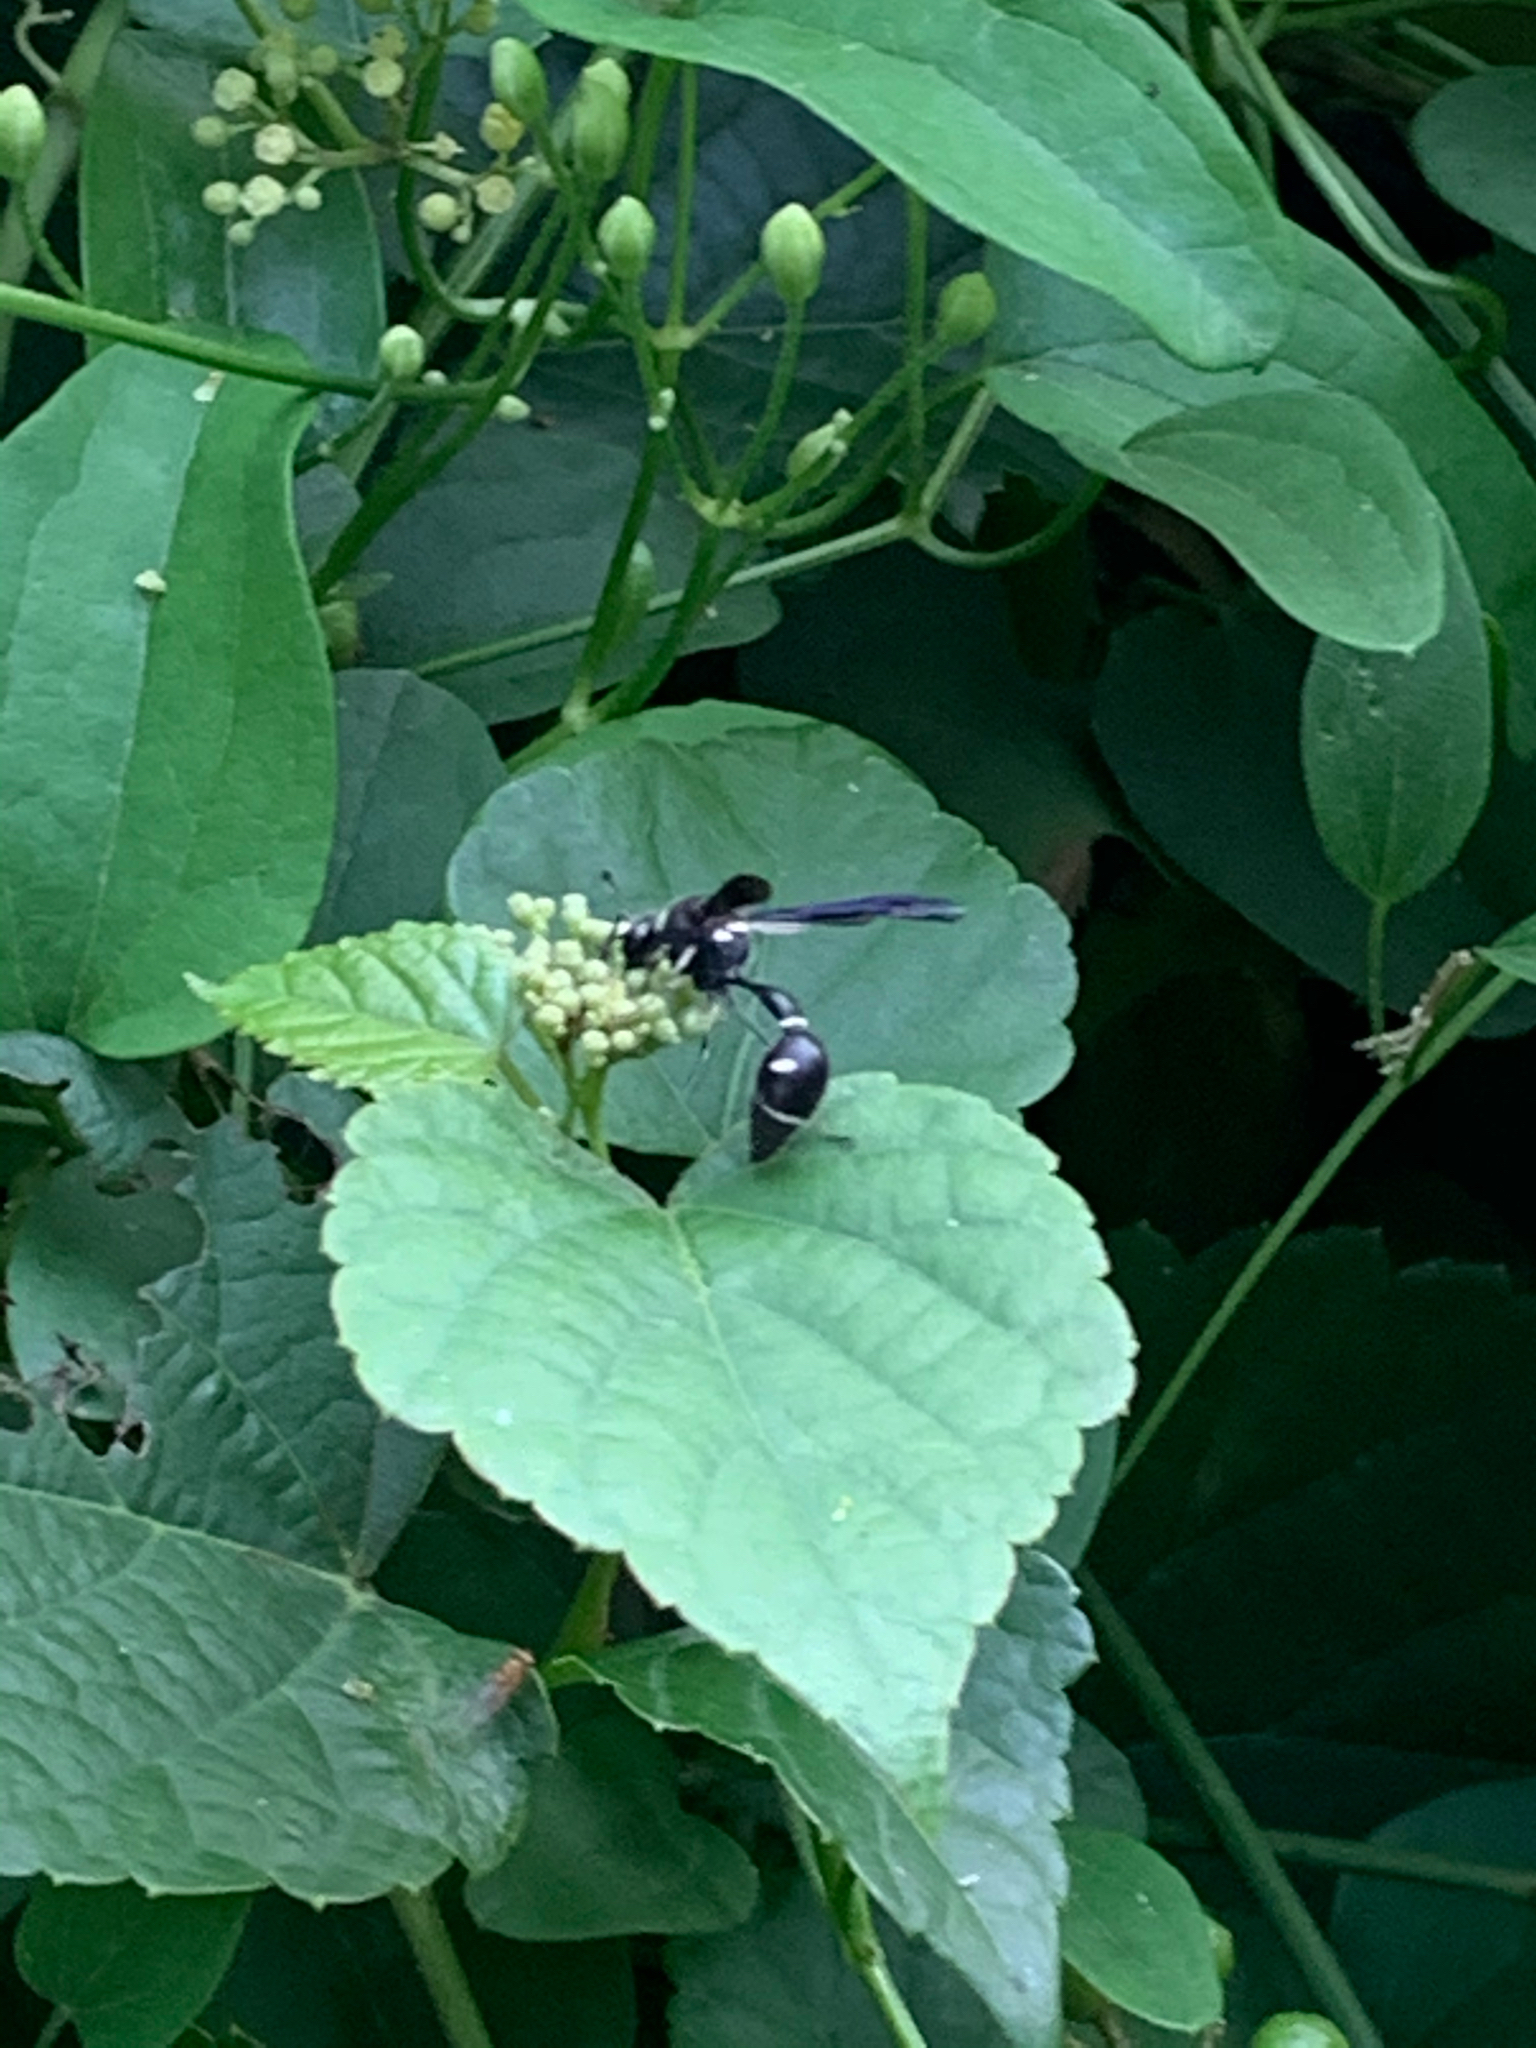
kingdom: Animalia
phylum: Arthropoda
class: Insecta
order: Hymenoptera
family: Vespidae
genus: Eumenes
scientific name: Eumenes fraternus
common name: Fraternal potter wasp
